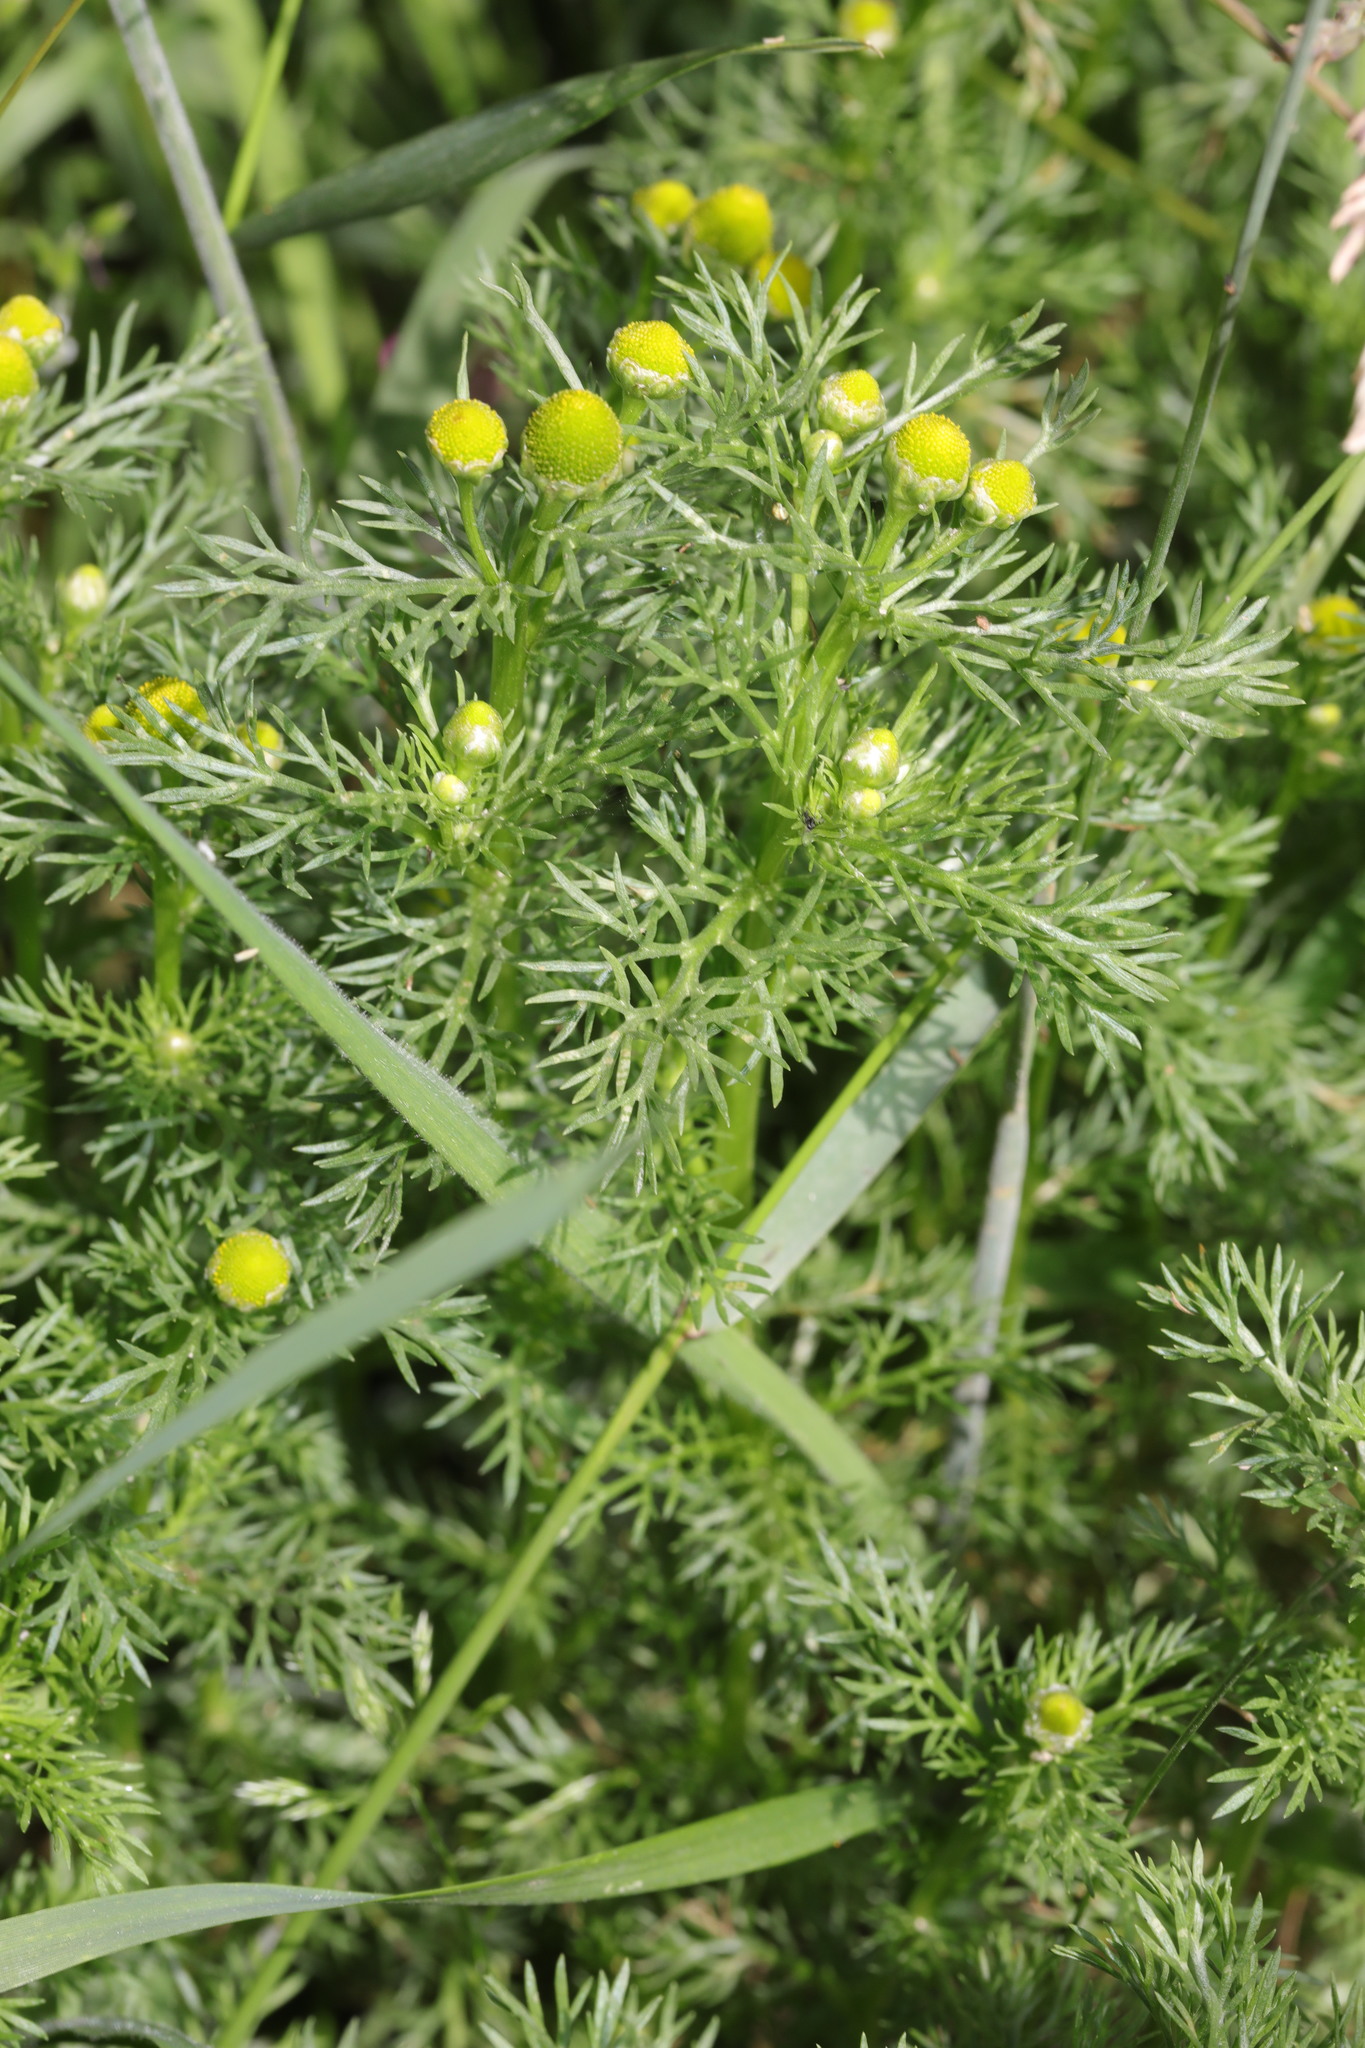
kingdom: Plantae
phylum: Tracheophyta
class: Magnoliopsida
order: Asterales
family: Asteraceae
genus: Matricaria
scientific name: Matricaria discoidea
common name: Disc mayweed
